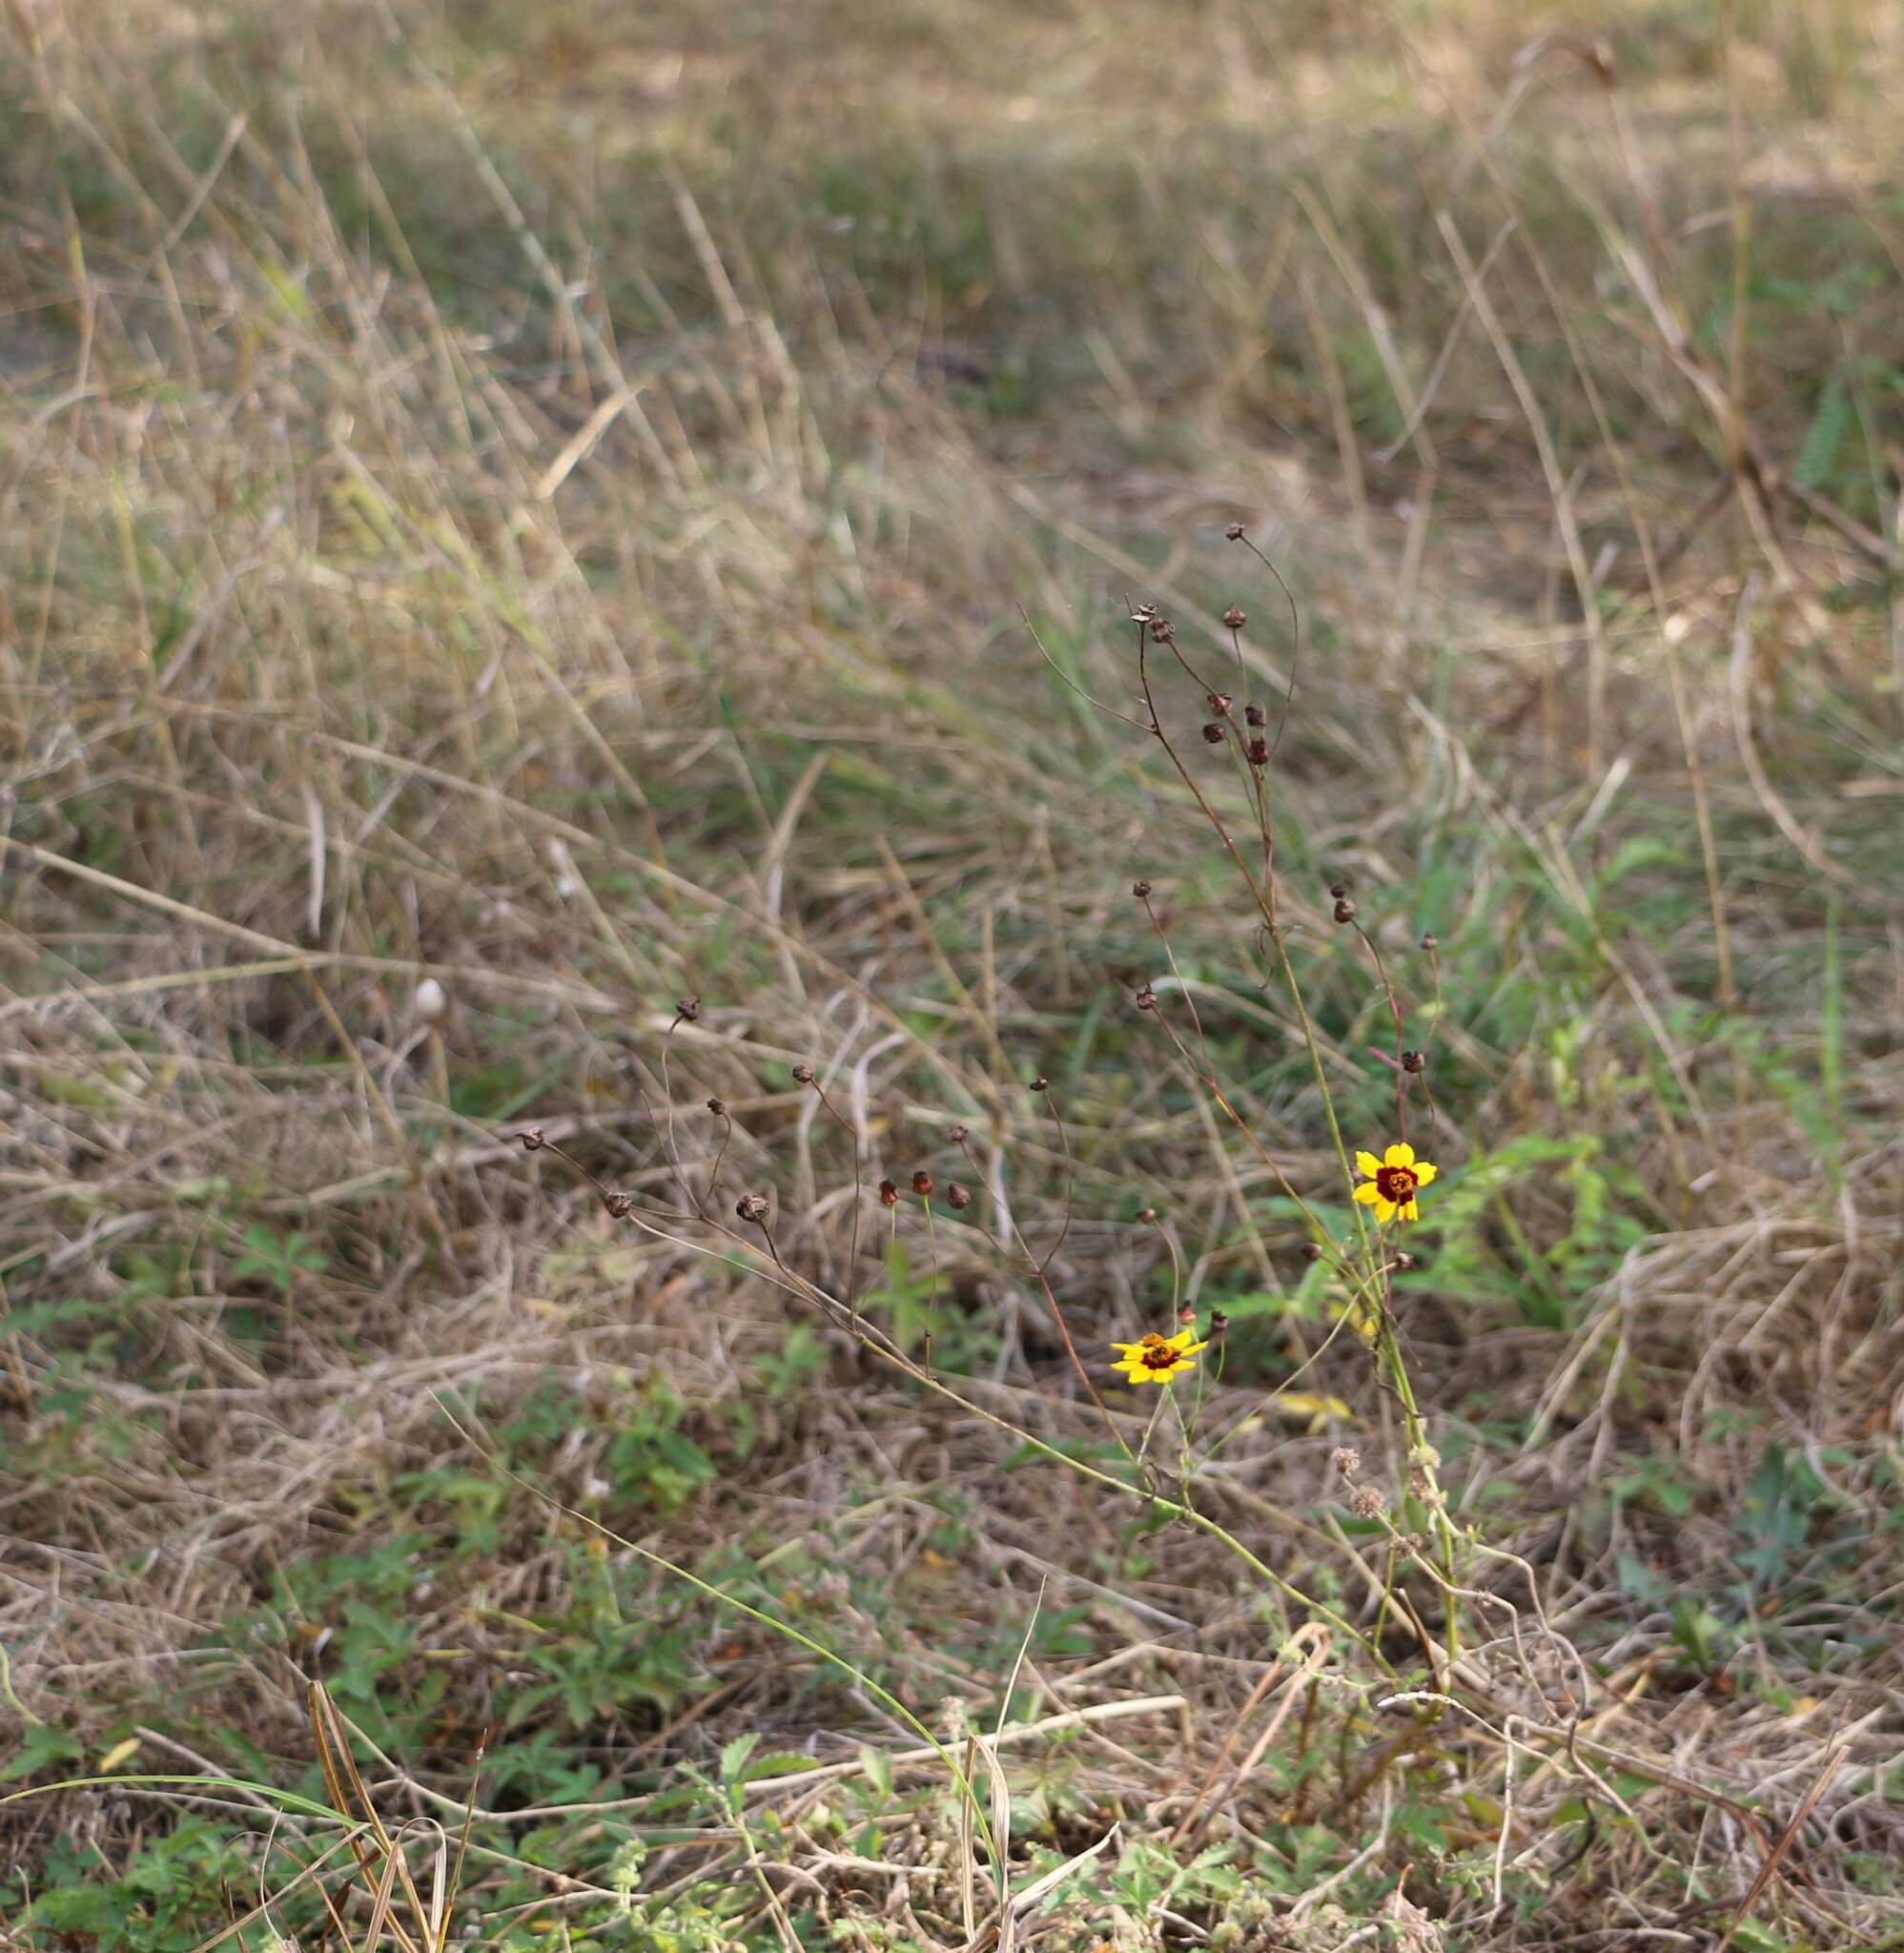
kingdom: Plantae
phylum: Tracheophyta
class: Magnoliopsida
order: Asterales
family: Asteraceae
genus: Coreopsis
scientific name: Coreopsis tinctoria
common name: Garden tickseed
